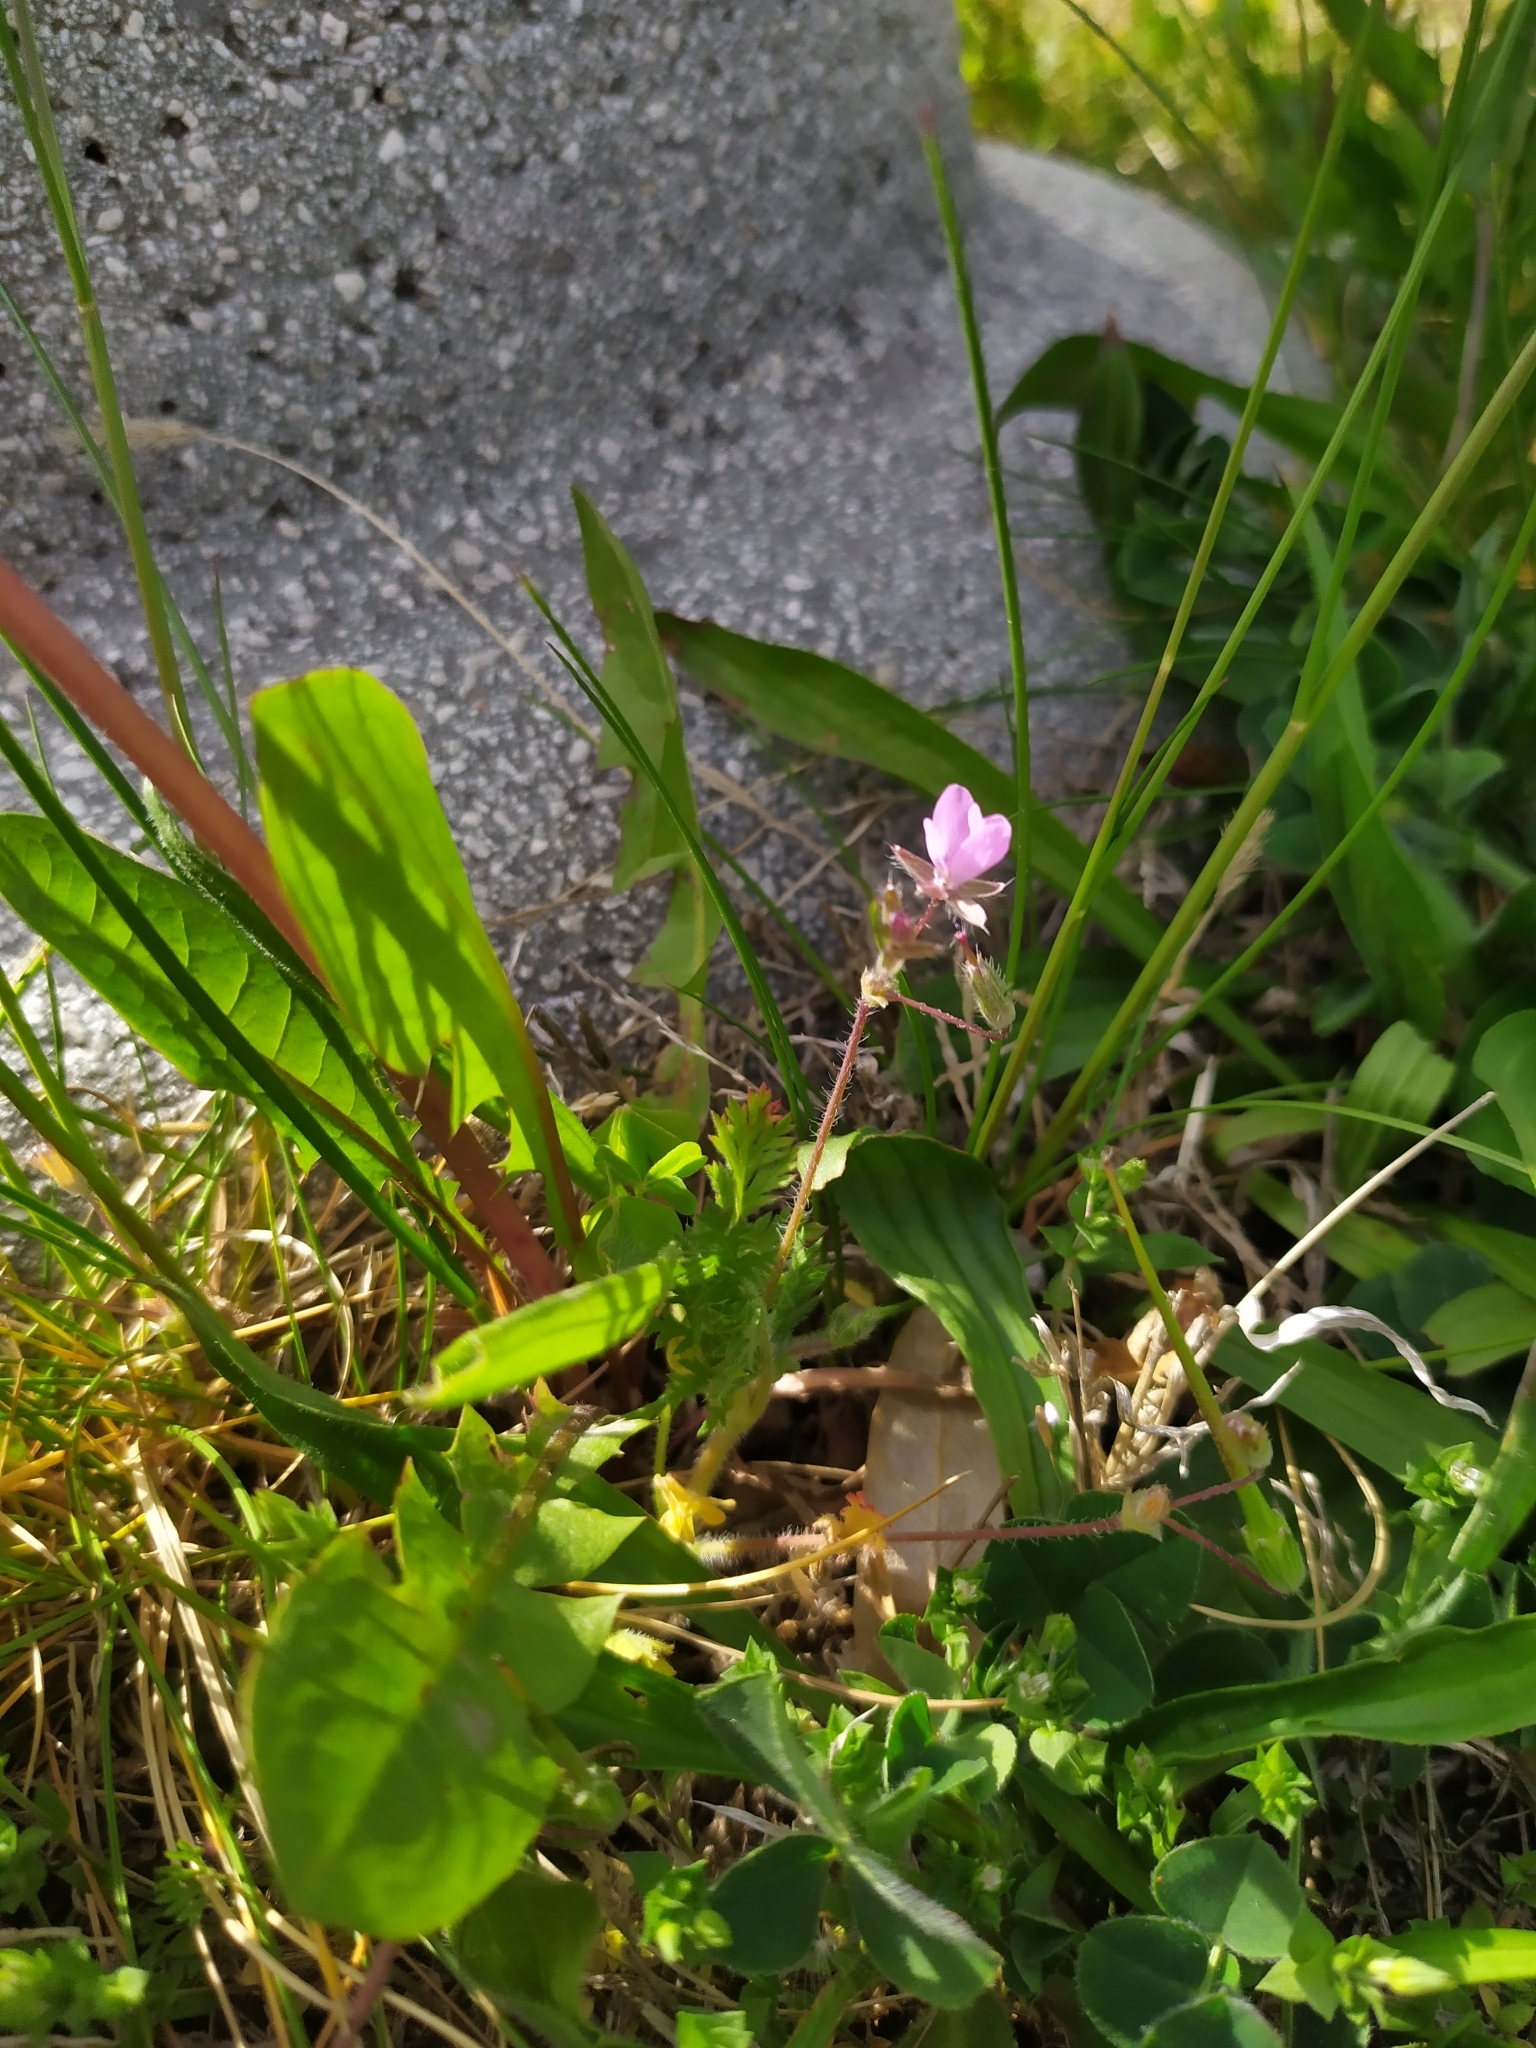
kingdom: Plantae
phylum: Tracheophyta
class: Magnoliopsida
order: Geraniales
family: Geraniaceae
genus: Erodium
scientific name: Erodium cicutarium
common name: Common stork's-bill
